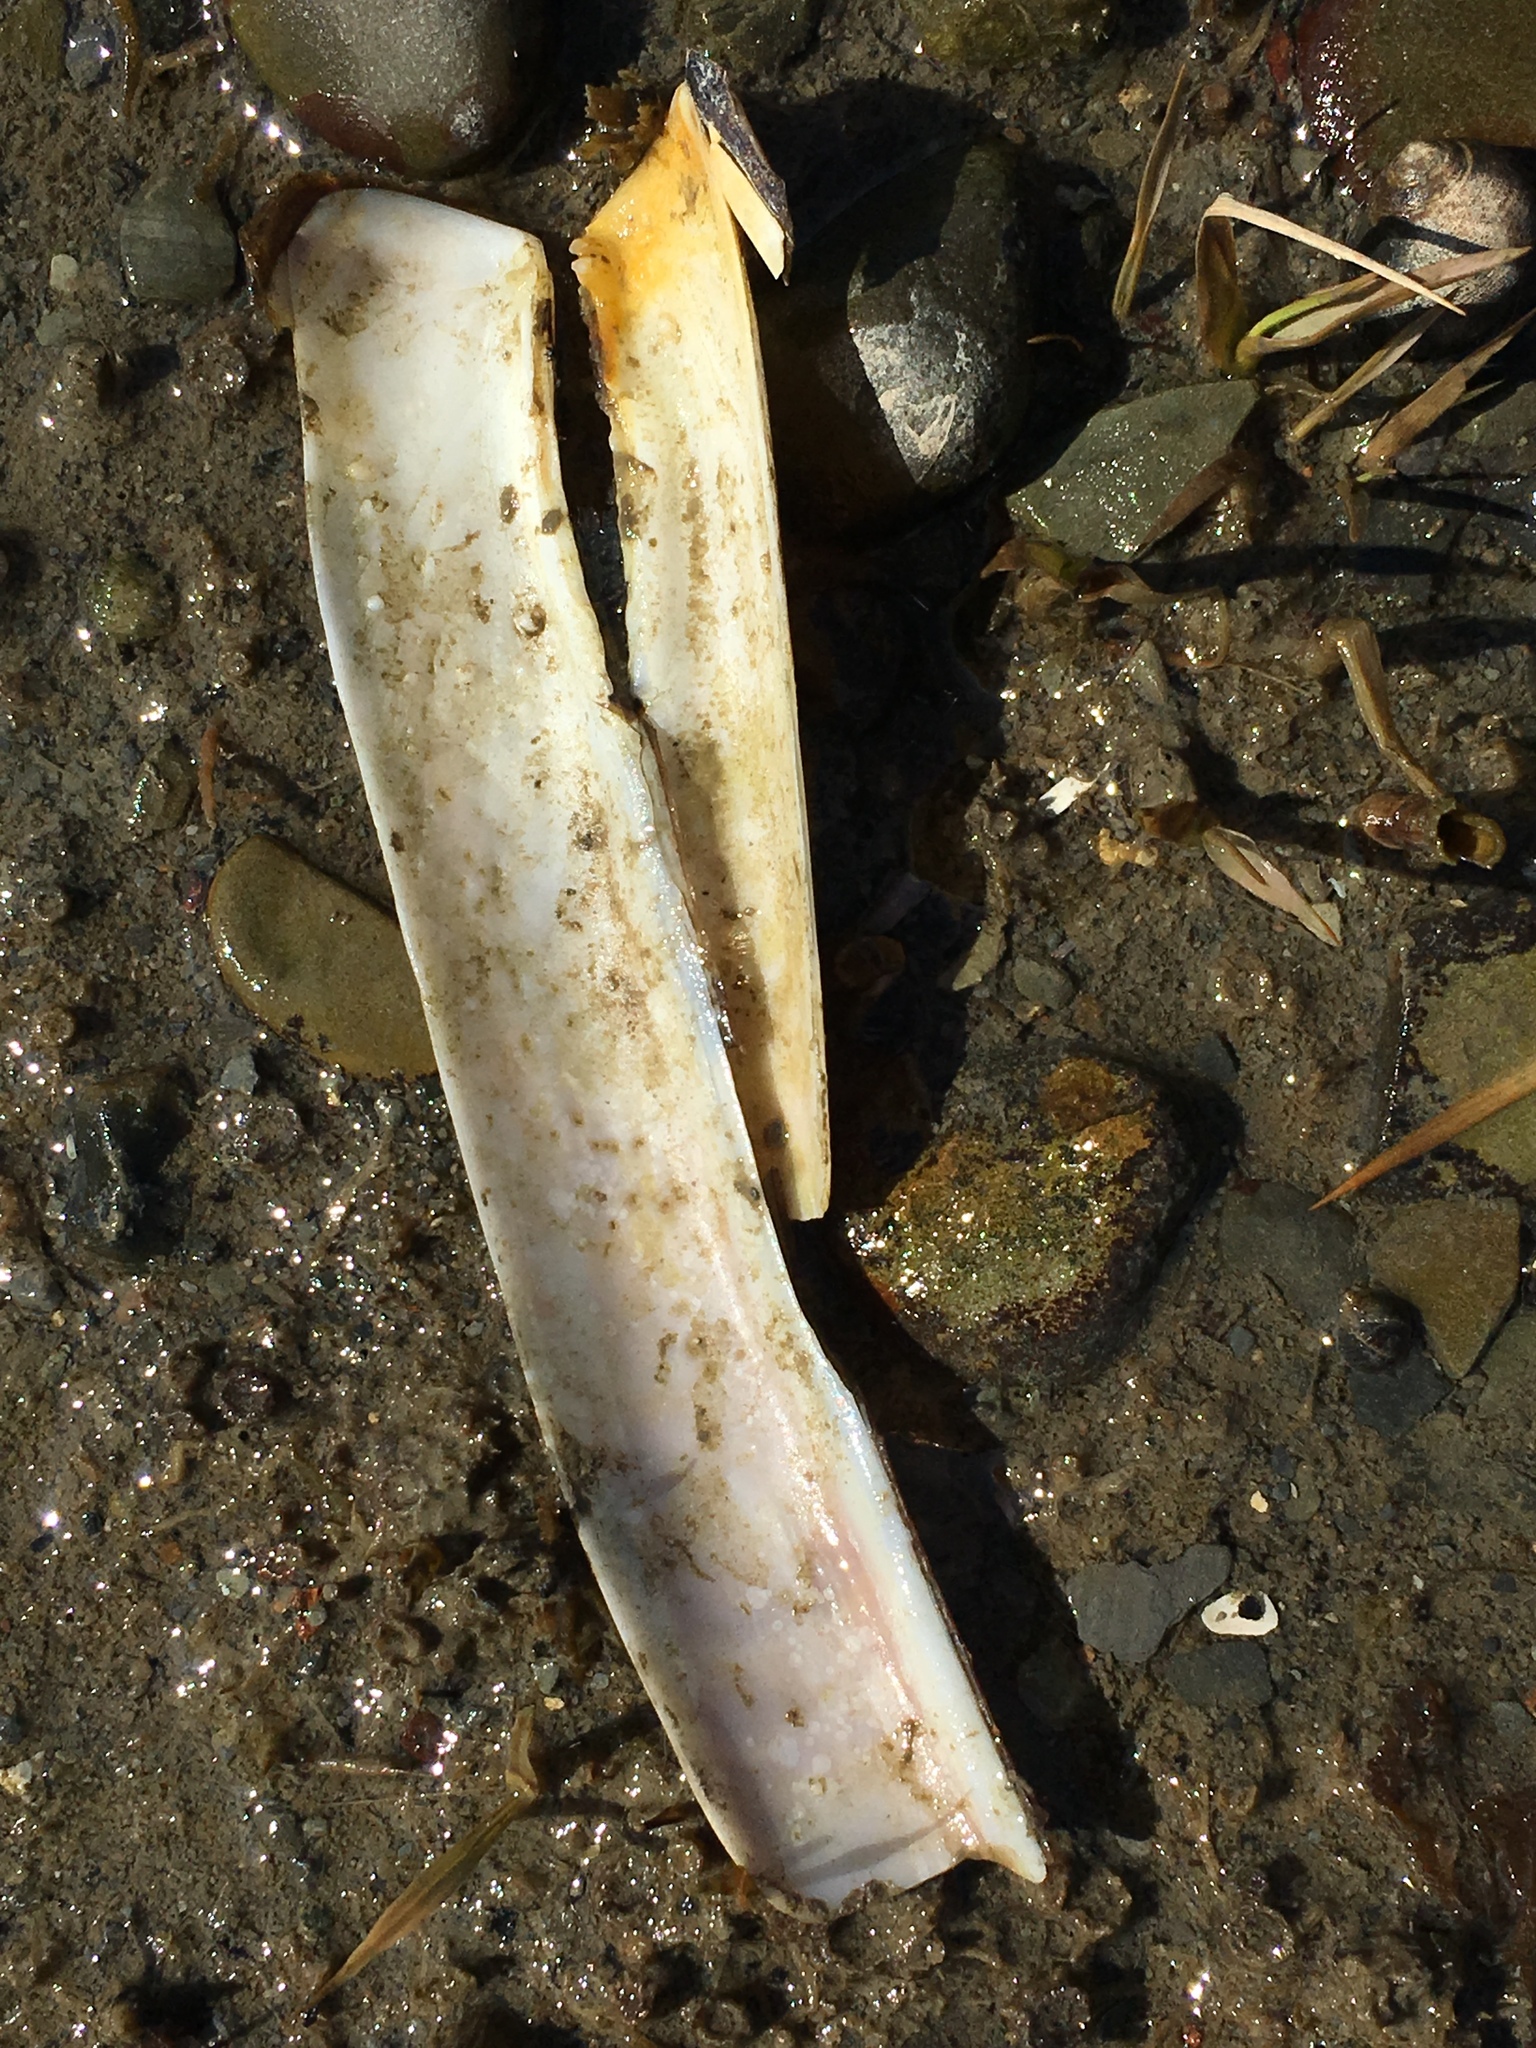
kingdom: Animalia
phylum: Mollusca
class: Bivalvia
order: Adapedonta
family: Pharidae
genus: Ensis
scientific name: Ensis leei
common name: American jack knife clam
